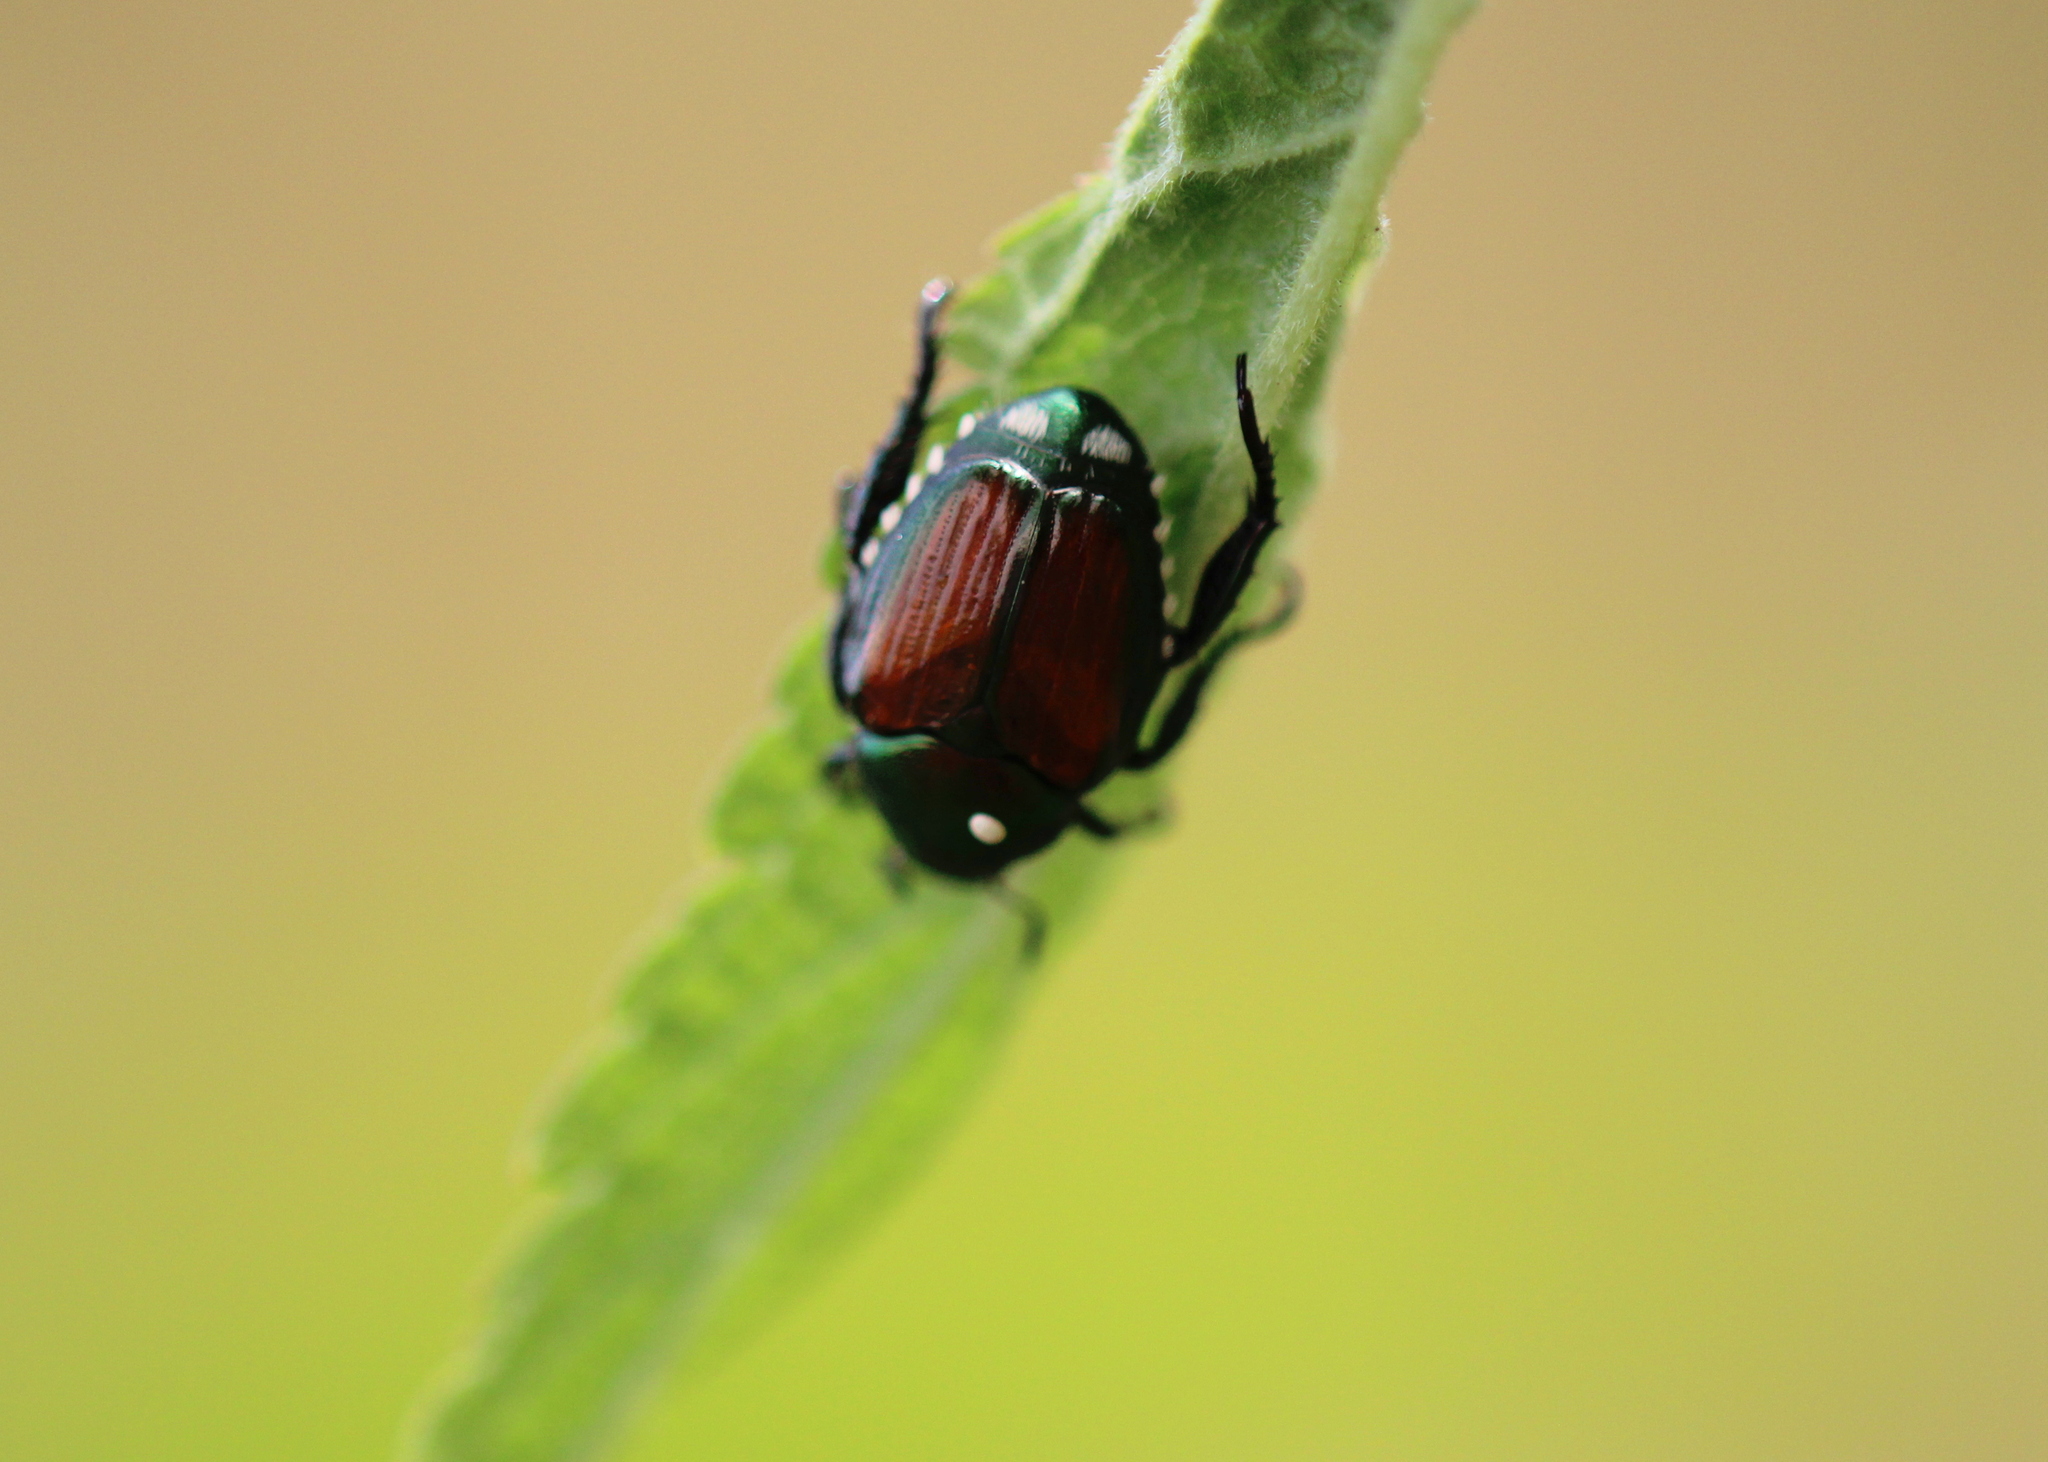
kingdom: Animalia
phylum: Arthropoda
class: Insecta
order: Diptera
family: Tachinidae
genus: Istocheta
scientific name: Istocheta aldrichi
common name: Parasitic wasp
